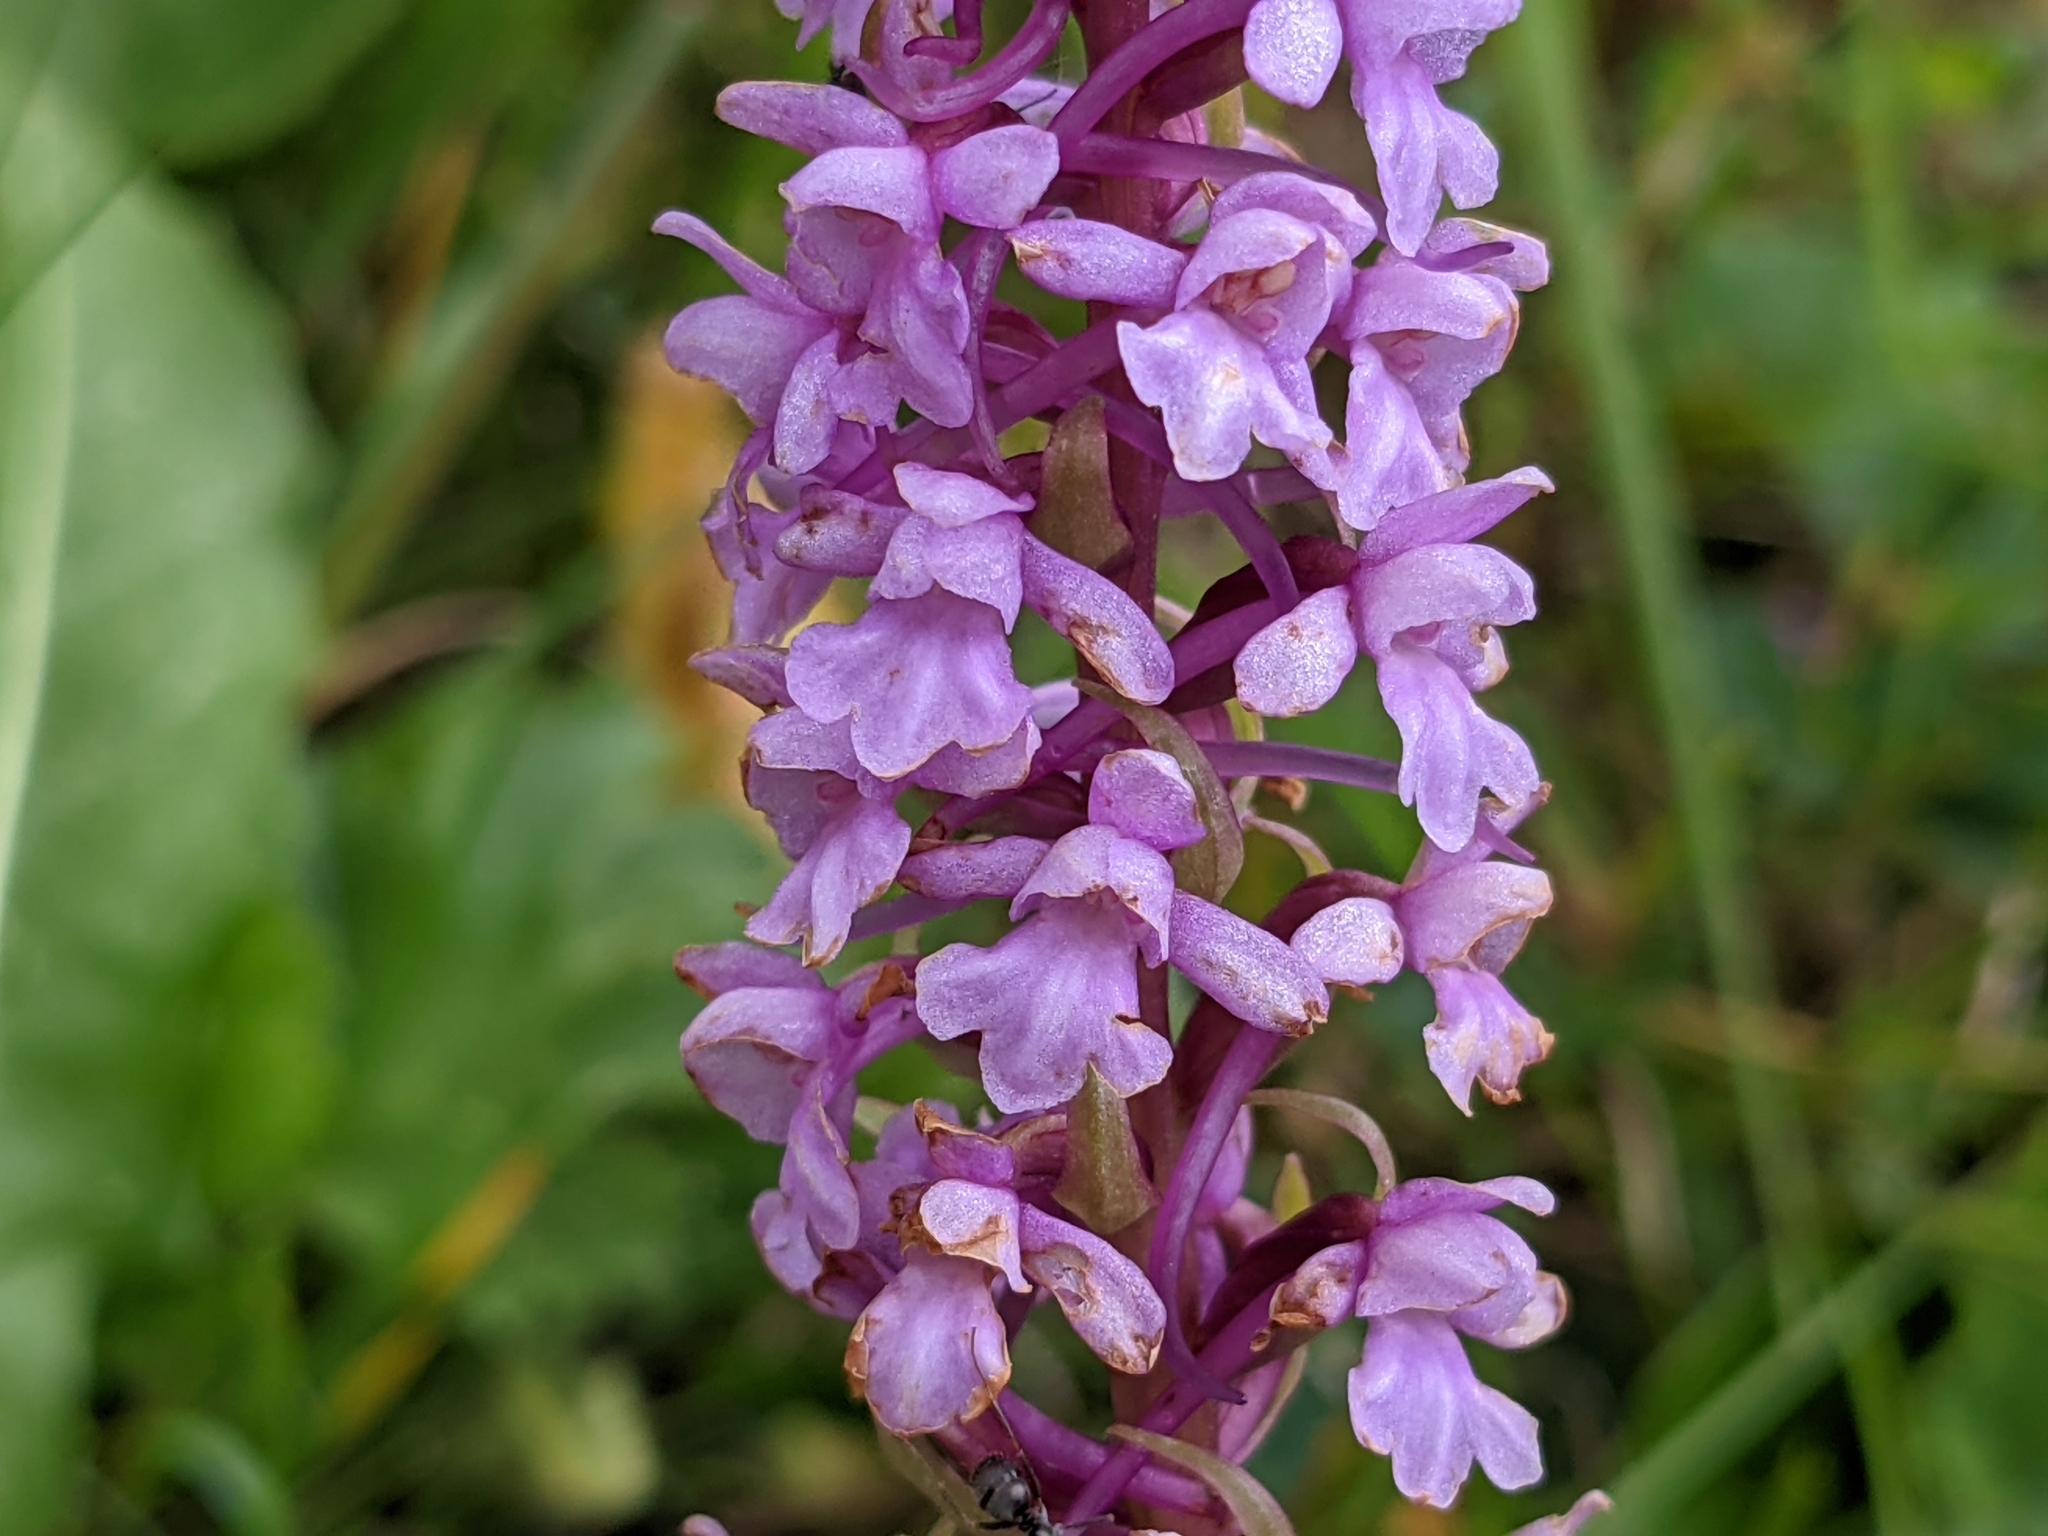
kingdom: Plantae
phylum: Tracheophyta
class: Liliopsida
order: Asparagales
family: Orchidaceae
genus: Gymnadenia
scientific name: Gymnadenia conopsea
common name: Fragrant orchid
